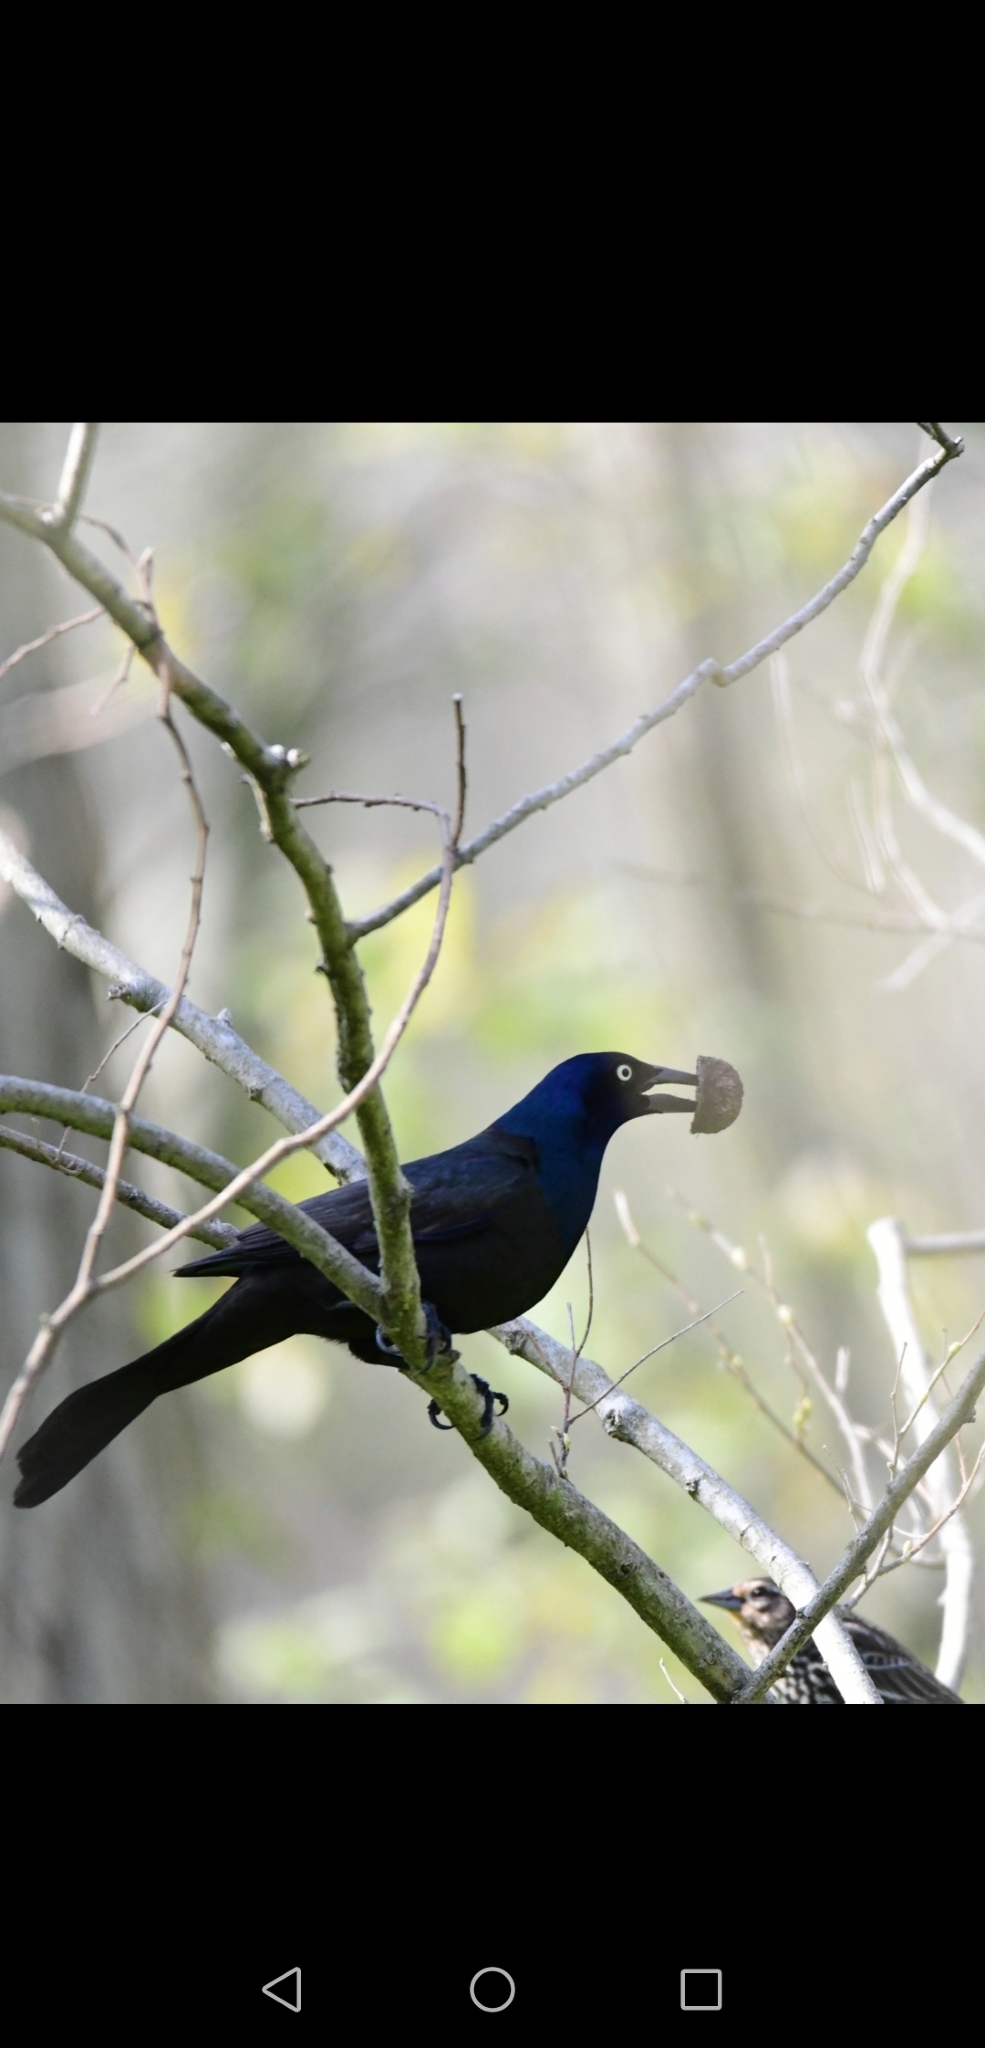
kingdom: Animalia
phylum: Chordata
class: Aves
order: Passeriformes
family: Icteridae
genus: Quiscalus
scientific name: Quiscalus quiscula
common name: Common grackle
